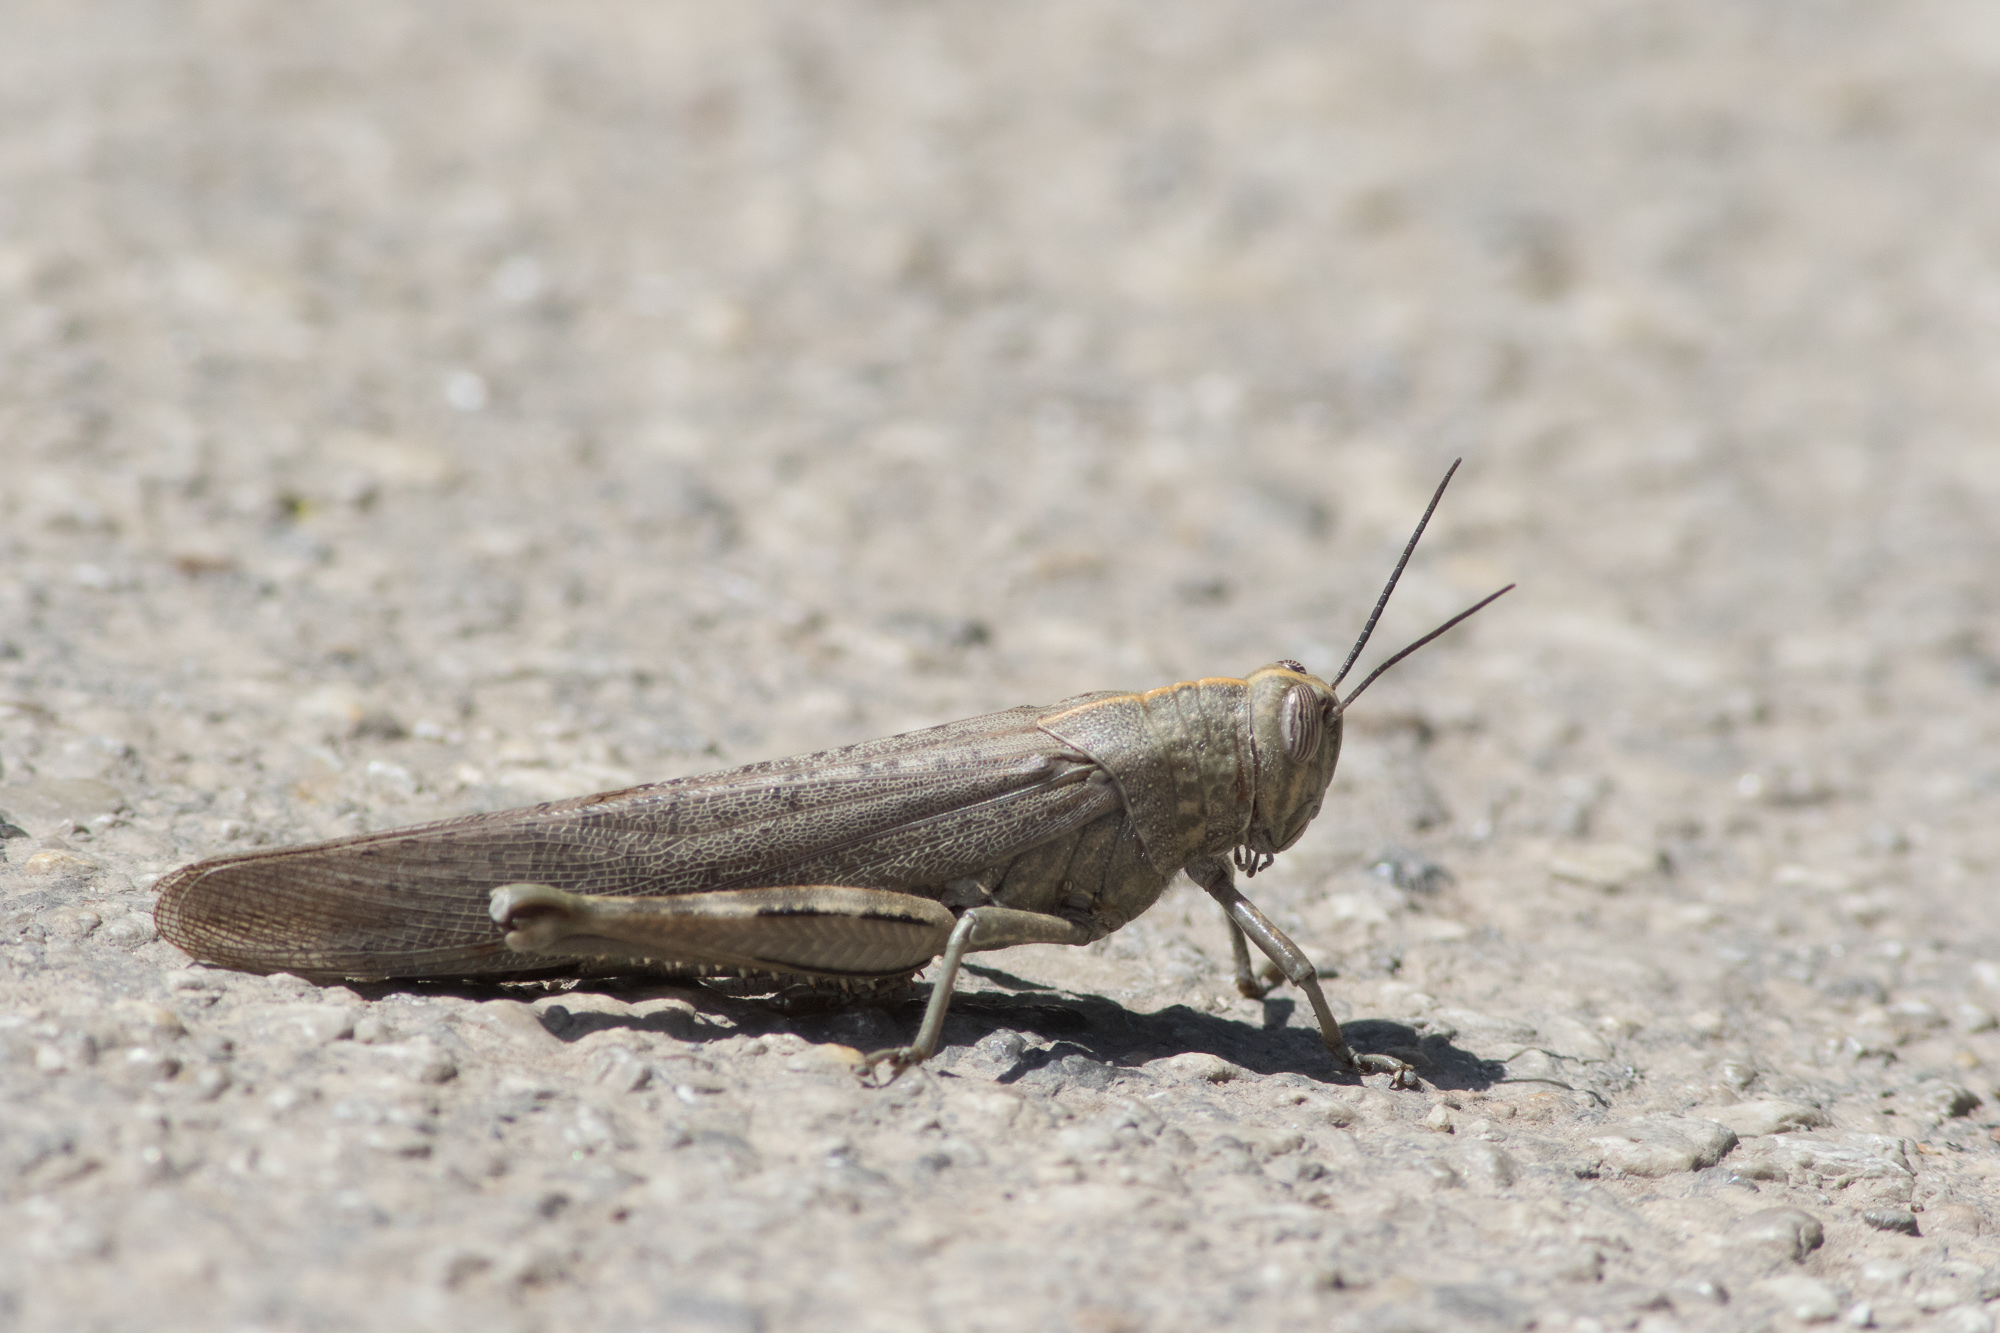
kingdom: Animalia
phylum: Arthropoda
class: Insecta
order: Orthoptera
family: Acrididae
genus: Anacridium
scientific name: Anacridium aegyptium
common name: Egyptian grasshopper
